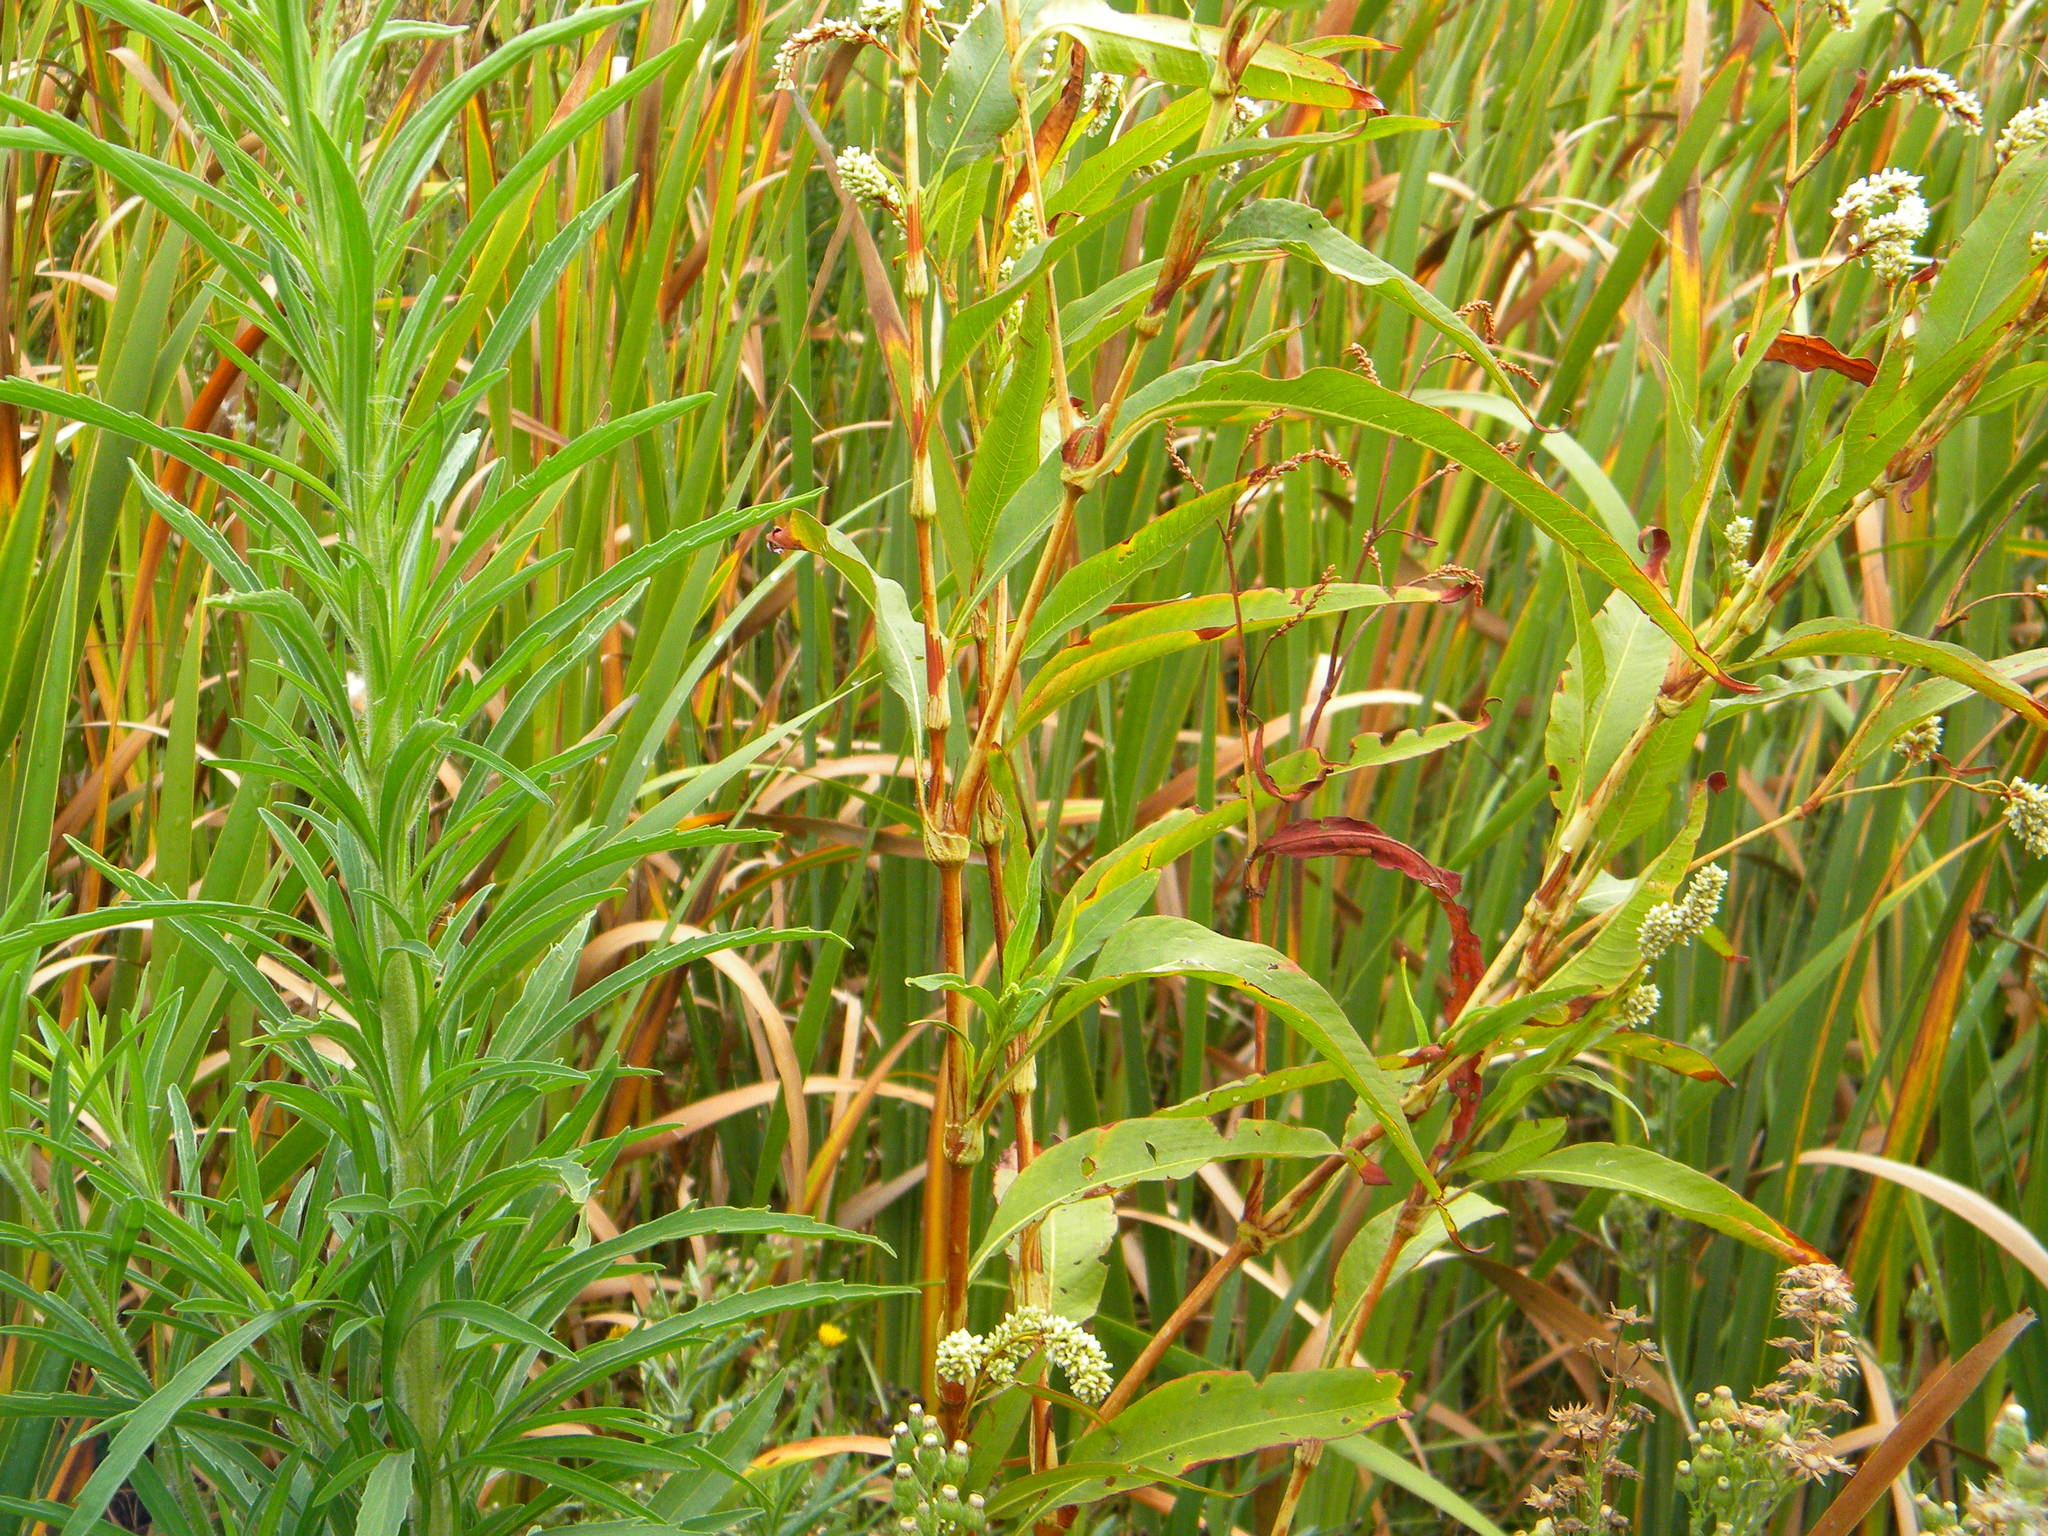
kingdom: Plantae
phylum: Tracheophyta
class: Magnoliopsida
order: Caryophyllales
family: Polygonaceae
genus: Persicaria
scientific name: Persicaria lapathifolia
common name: Curlytop knotweed
